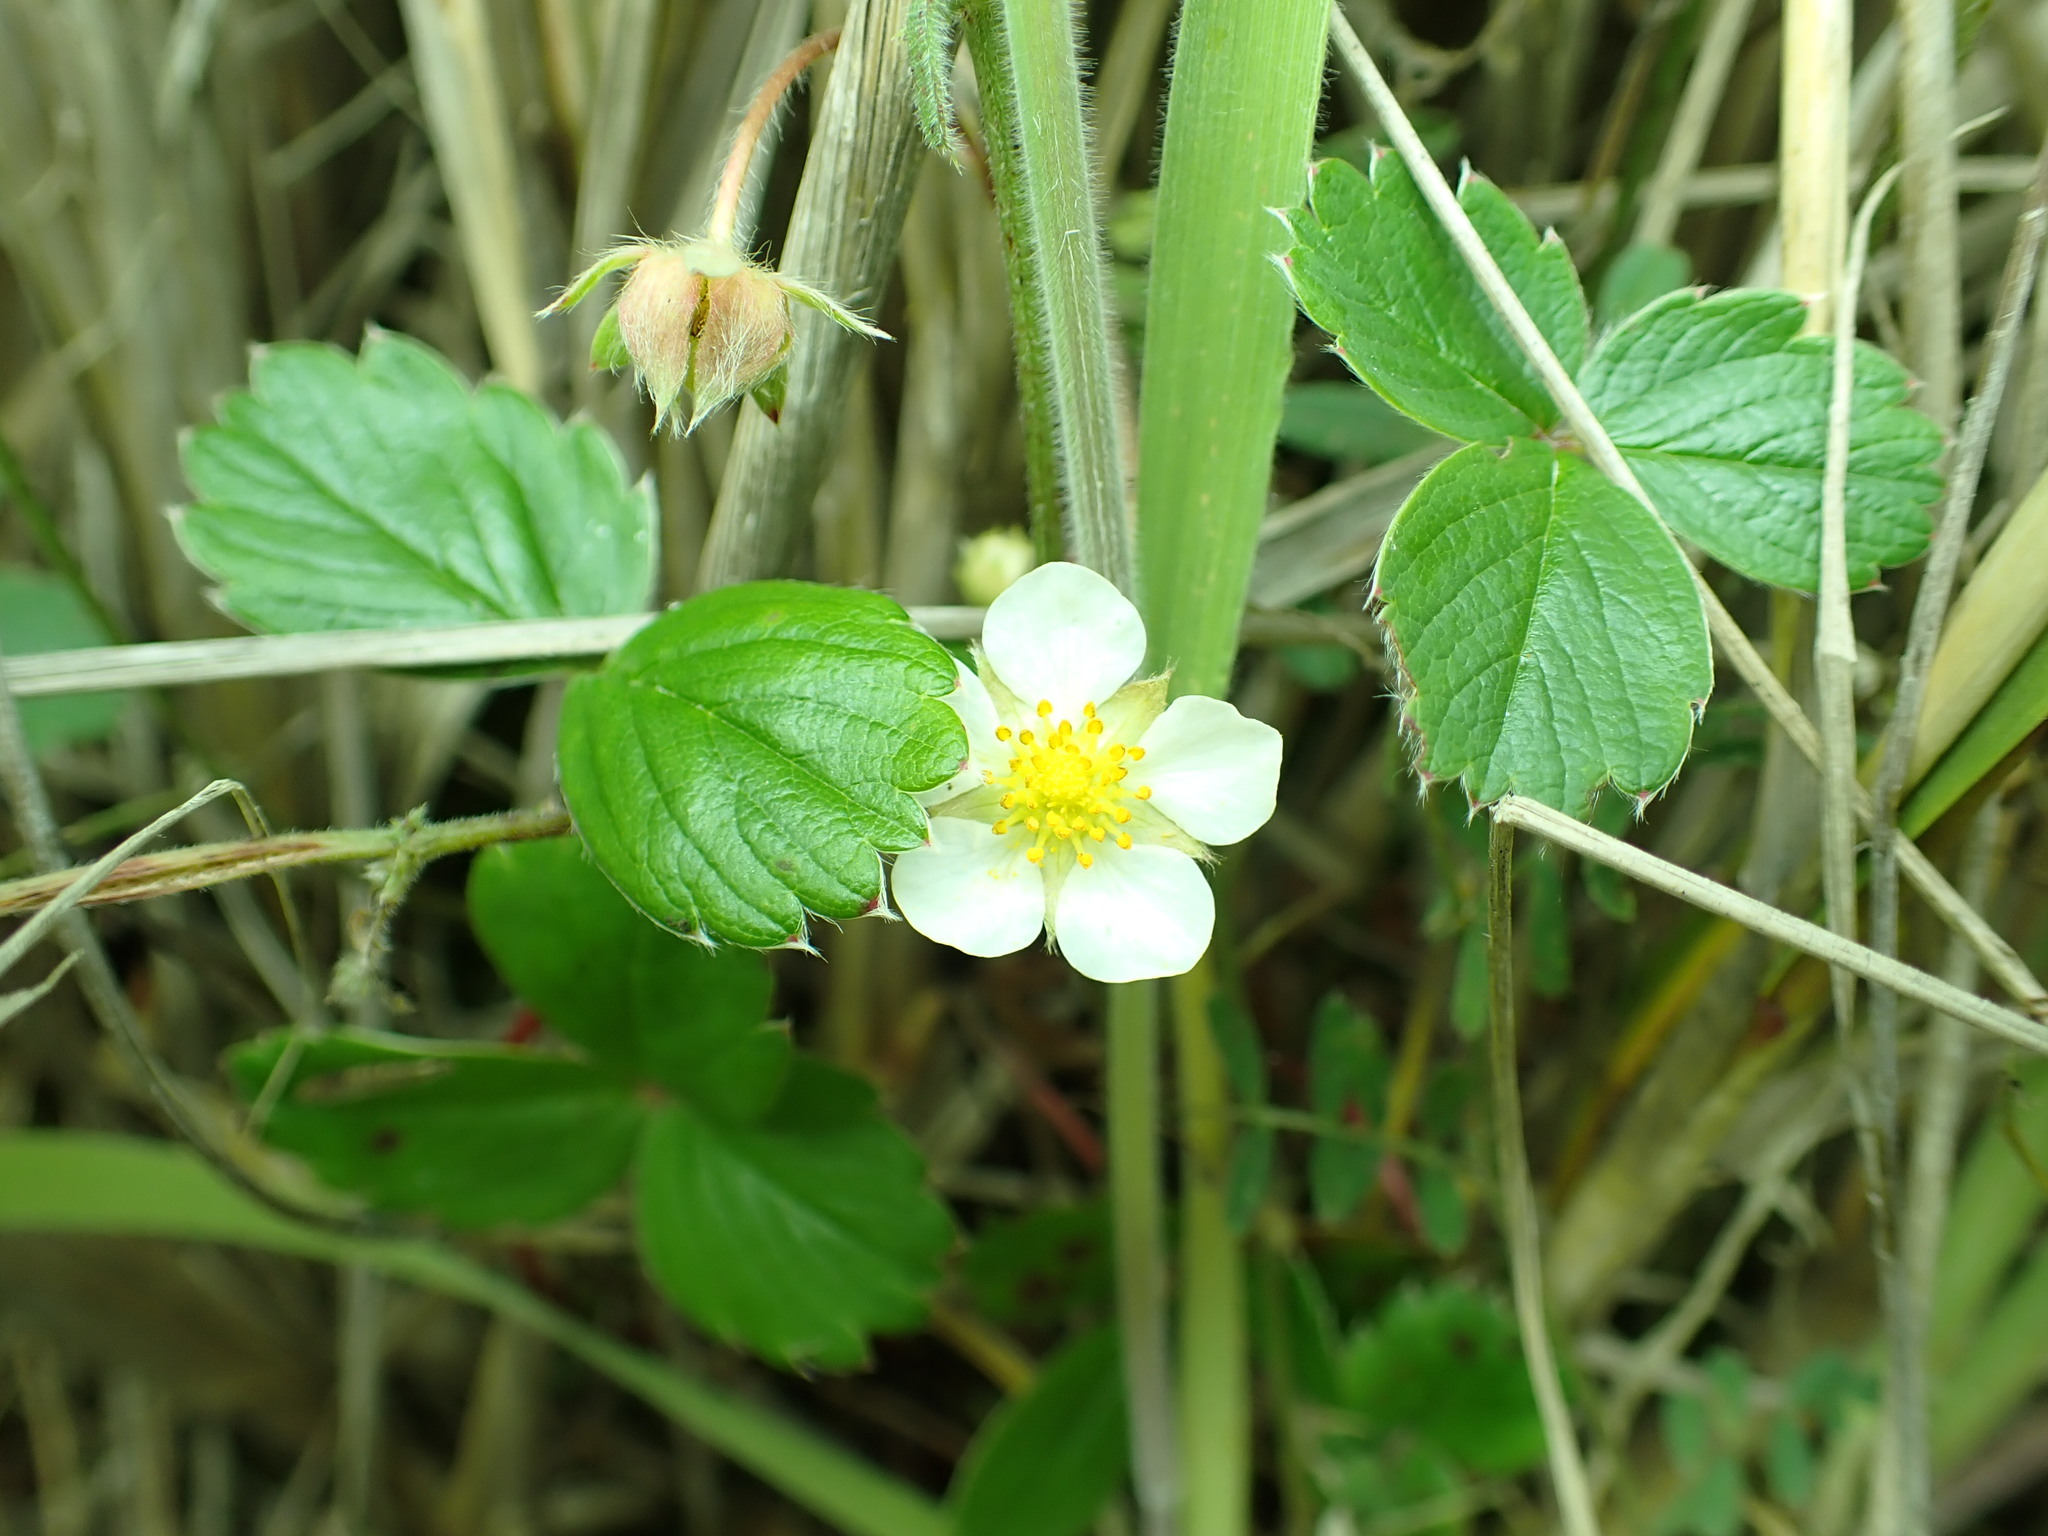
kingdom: Plantae
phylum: Tracheophyta
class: Magnoliopsida
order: Rosales
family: Rosaceae
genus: Fragaria
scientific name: Fragaria chiloensis
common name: Beach strawberry
